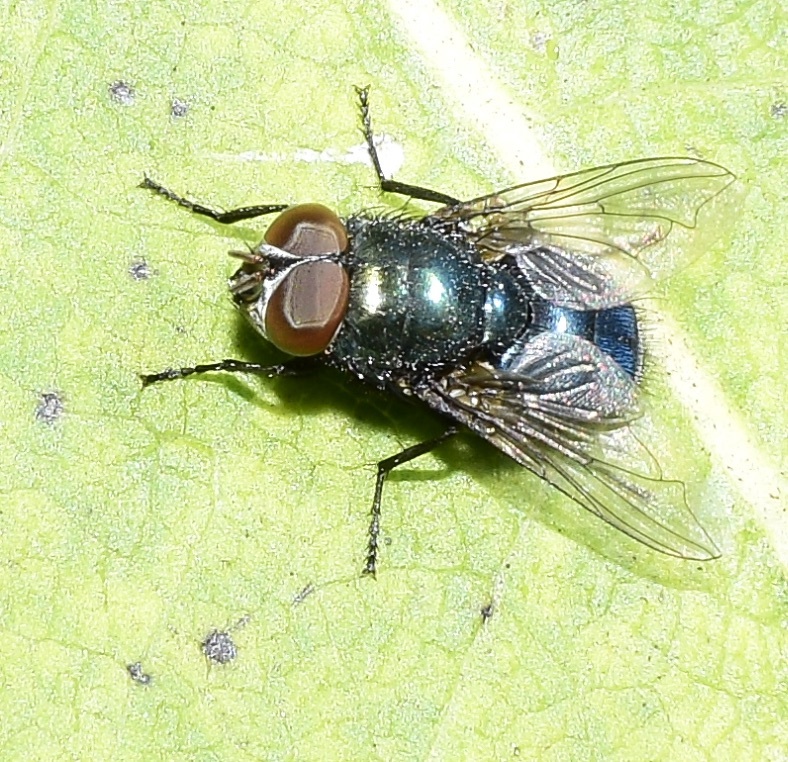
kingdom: Animalia
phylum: Arthropoda
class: Insecta
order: Diptera
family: Calliphoridae
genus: Phormia
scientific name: Phormia regina
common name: Black blow fly
